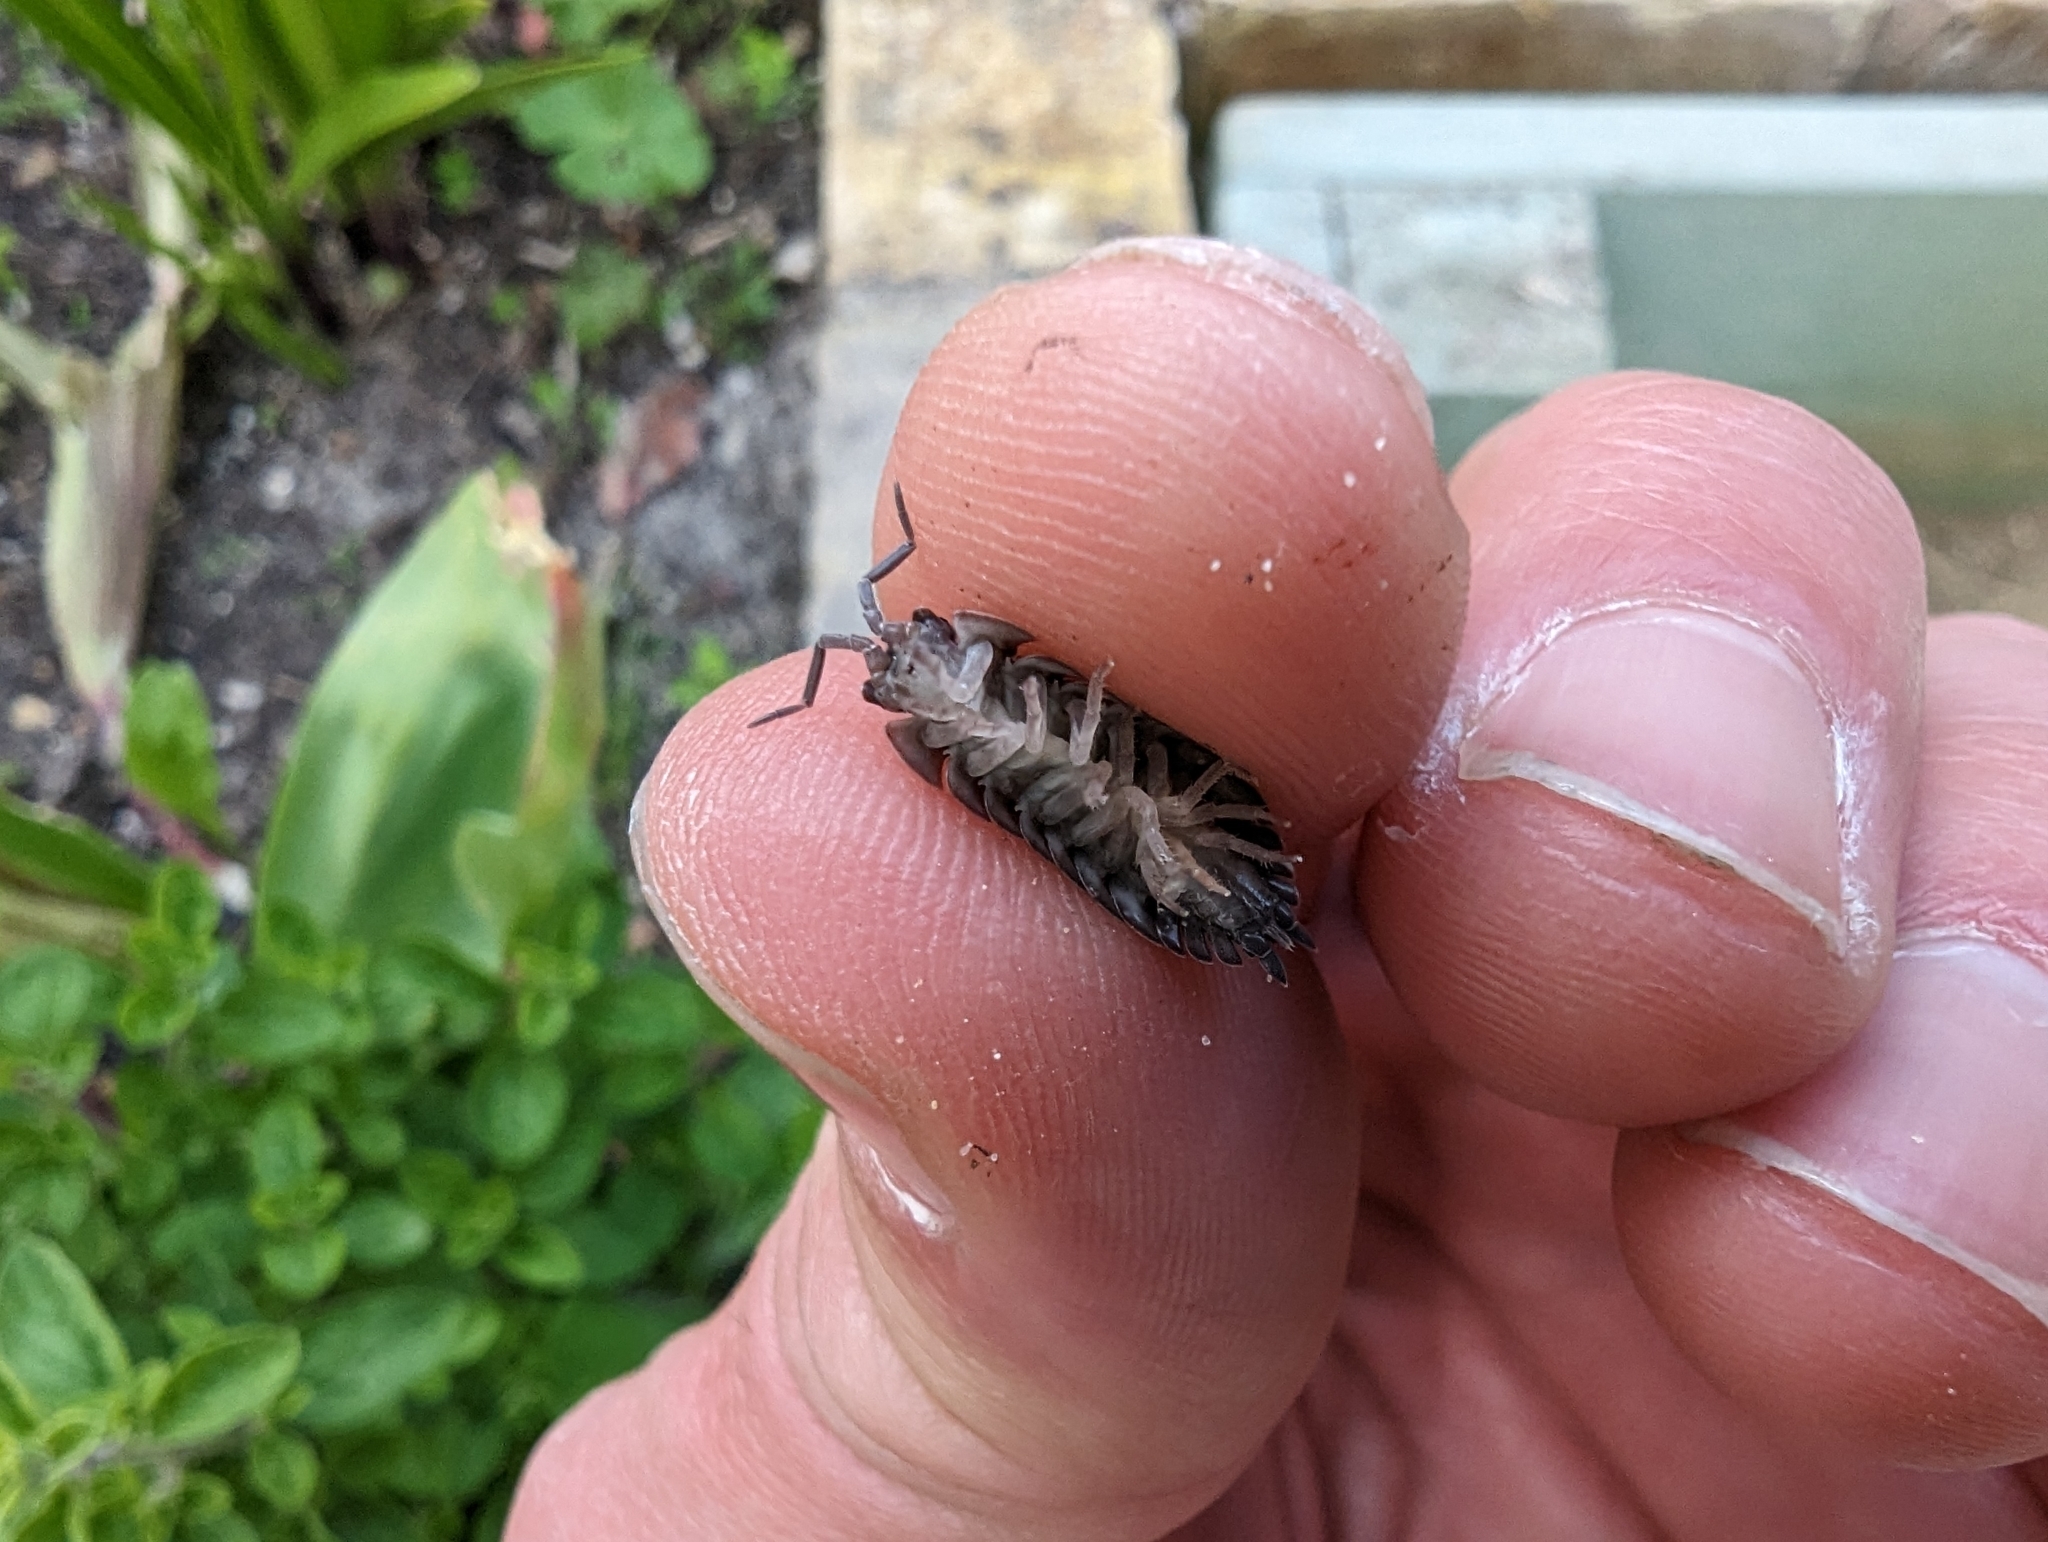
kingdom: Animalia
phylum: Arthropoda
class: Malacostraca
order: Isopoda
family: Porcellionidae
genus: Porcellio
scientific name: Porcellio scaber
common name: Common rough woodlouse
